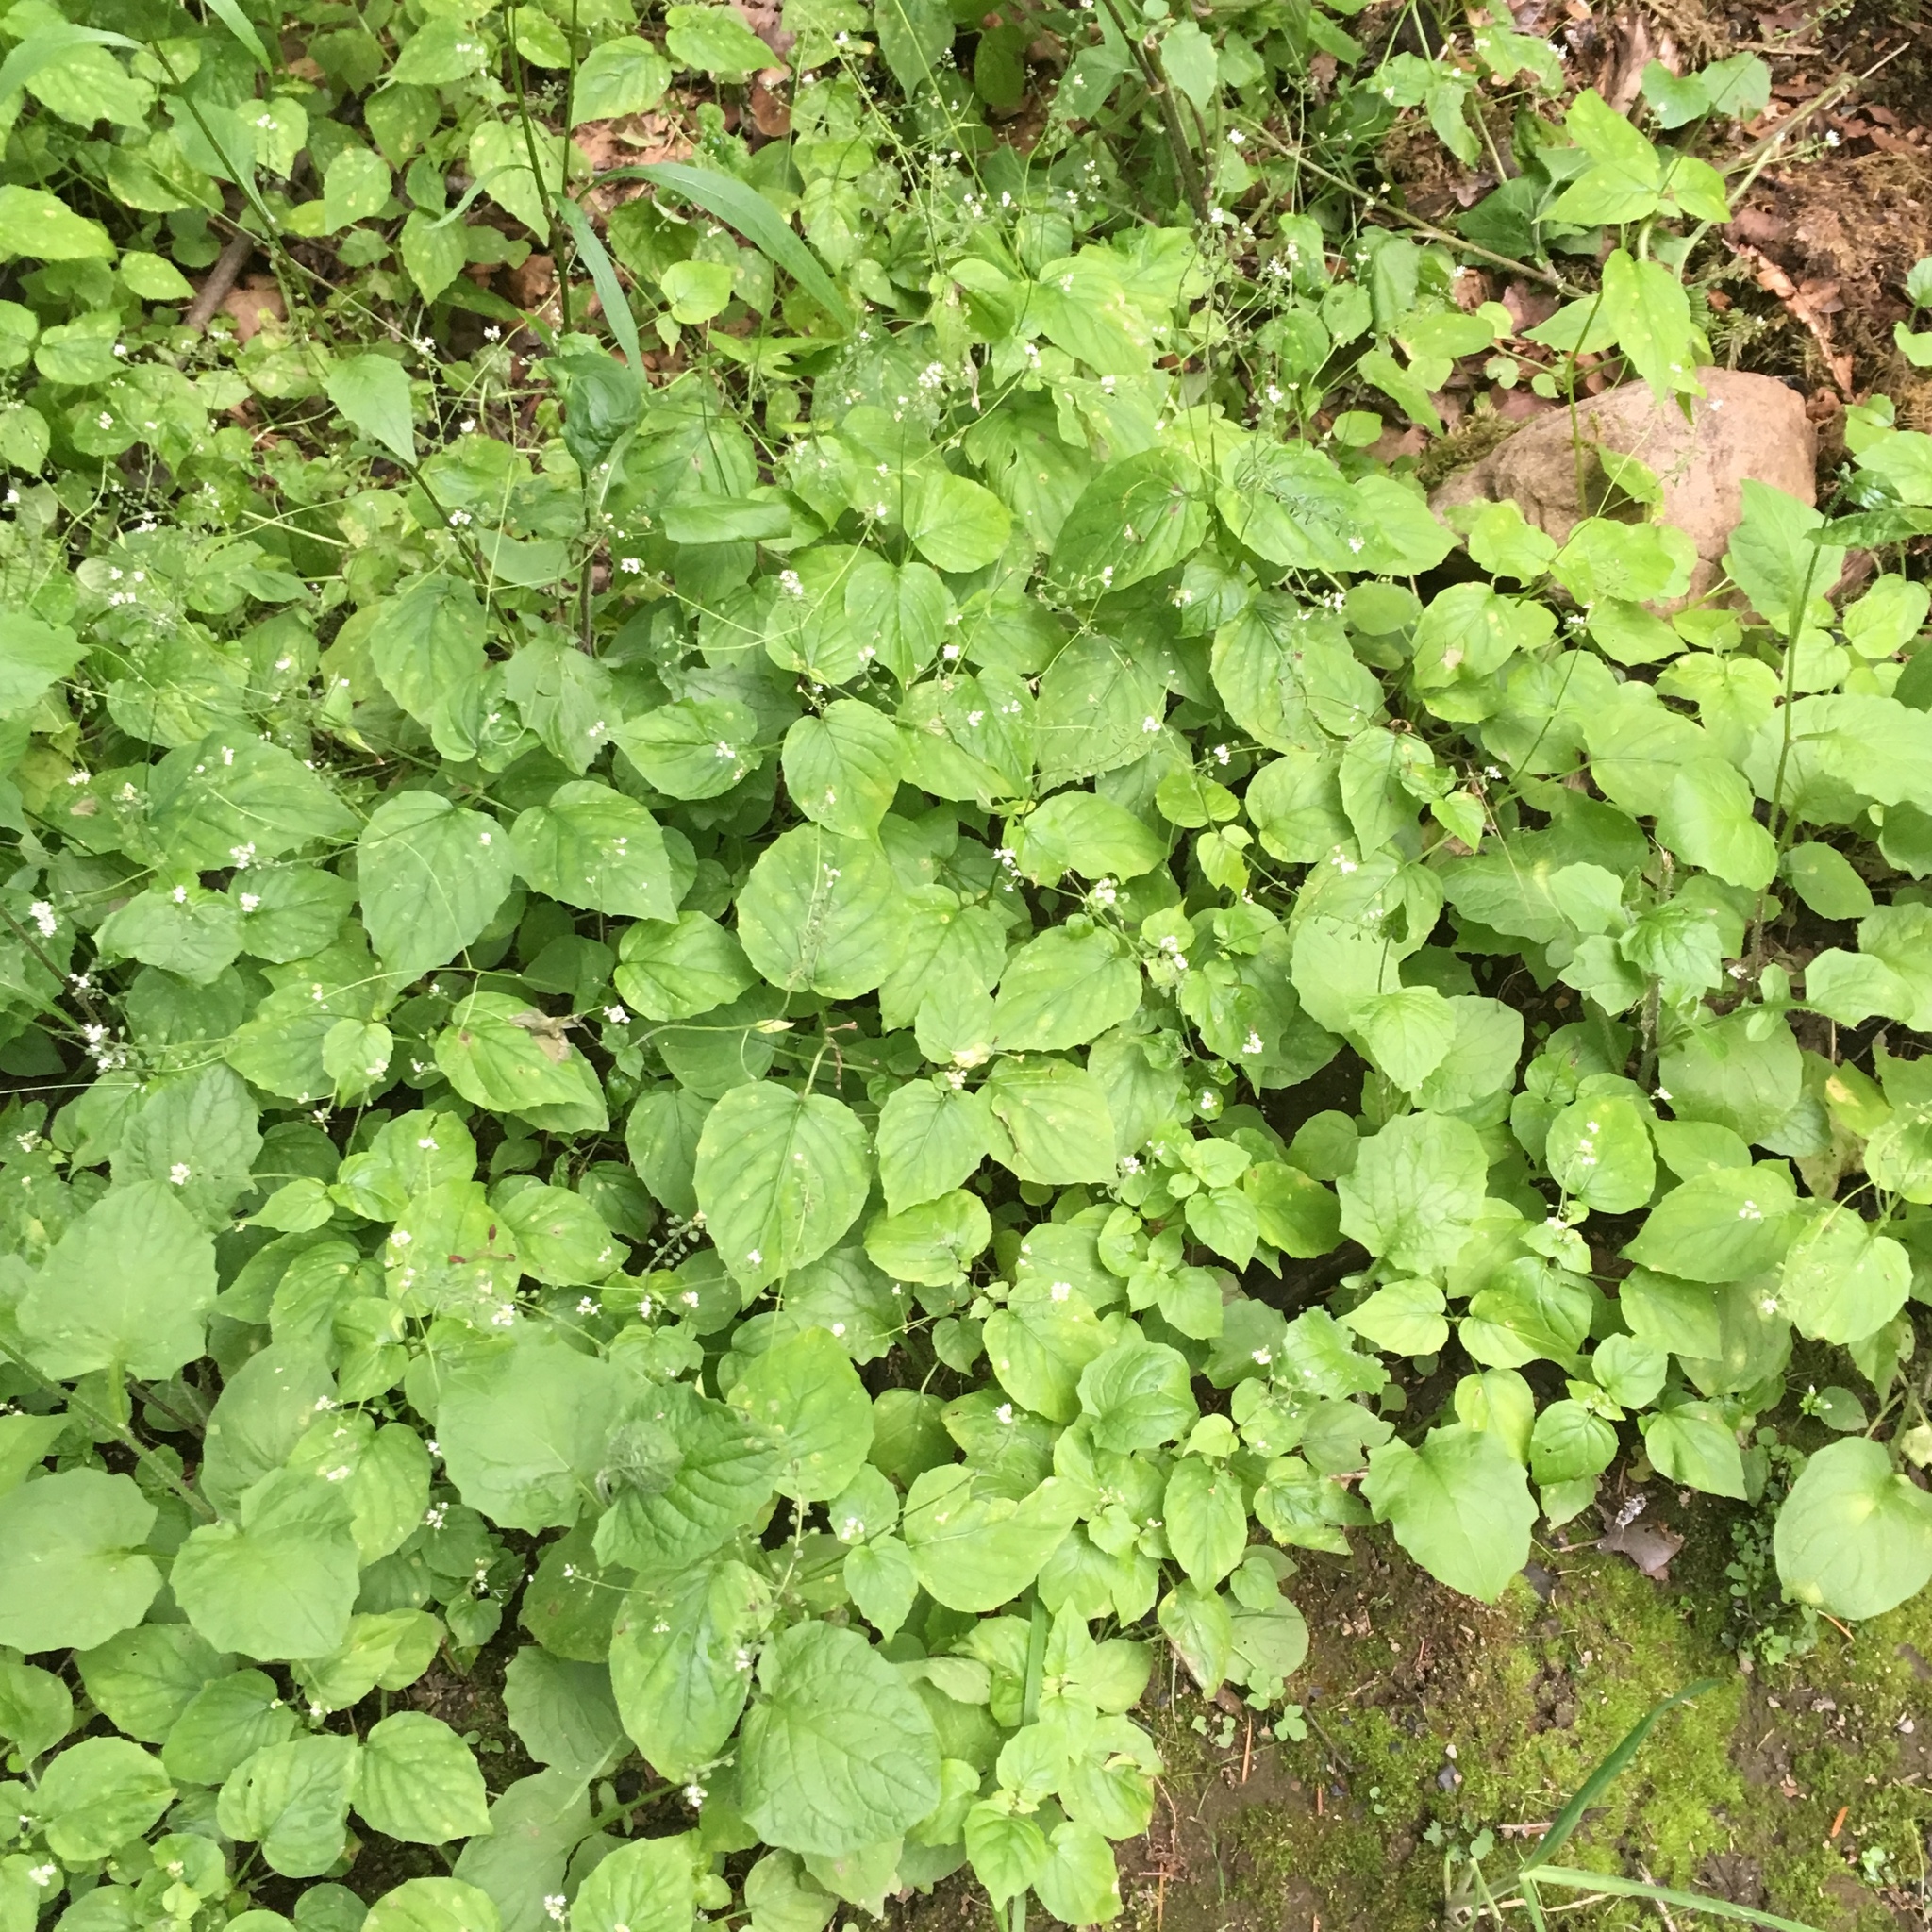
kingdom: Plantae
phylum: Tracheophyta
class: Magnoliopsida
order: Myrtales
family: Onagraceae
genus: Circaea
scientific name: Circaea alpina
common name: Alpine enchanter's-nightshade
